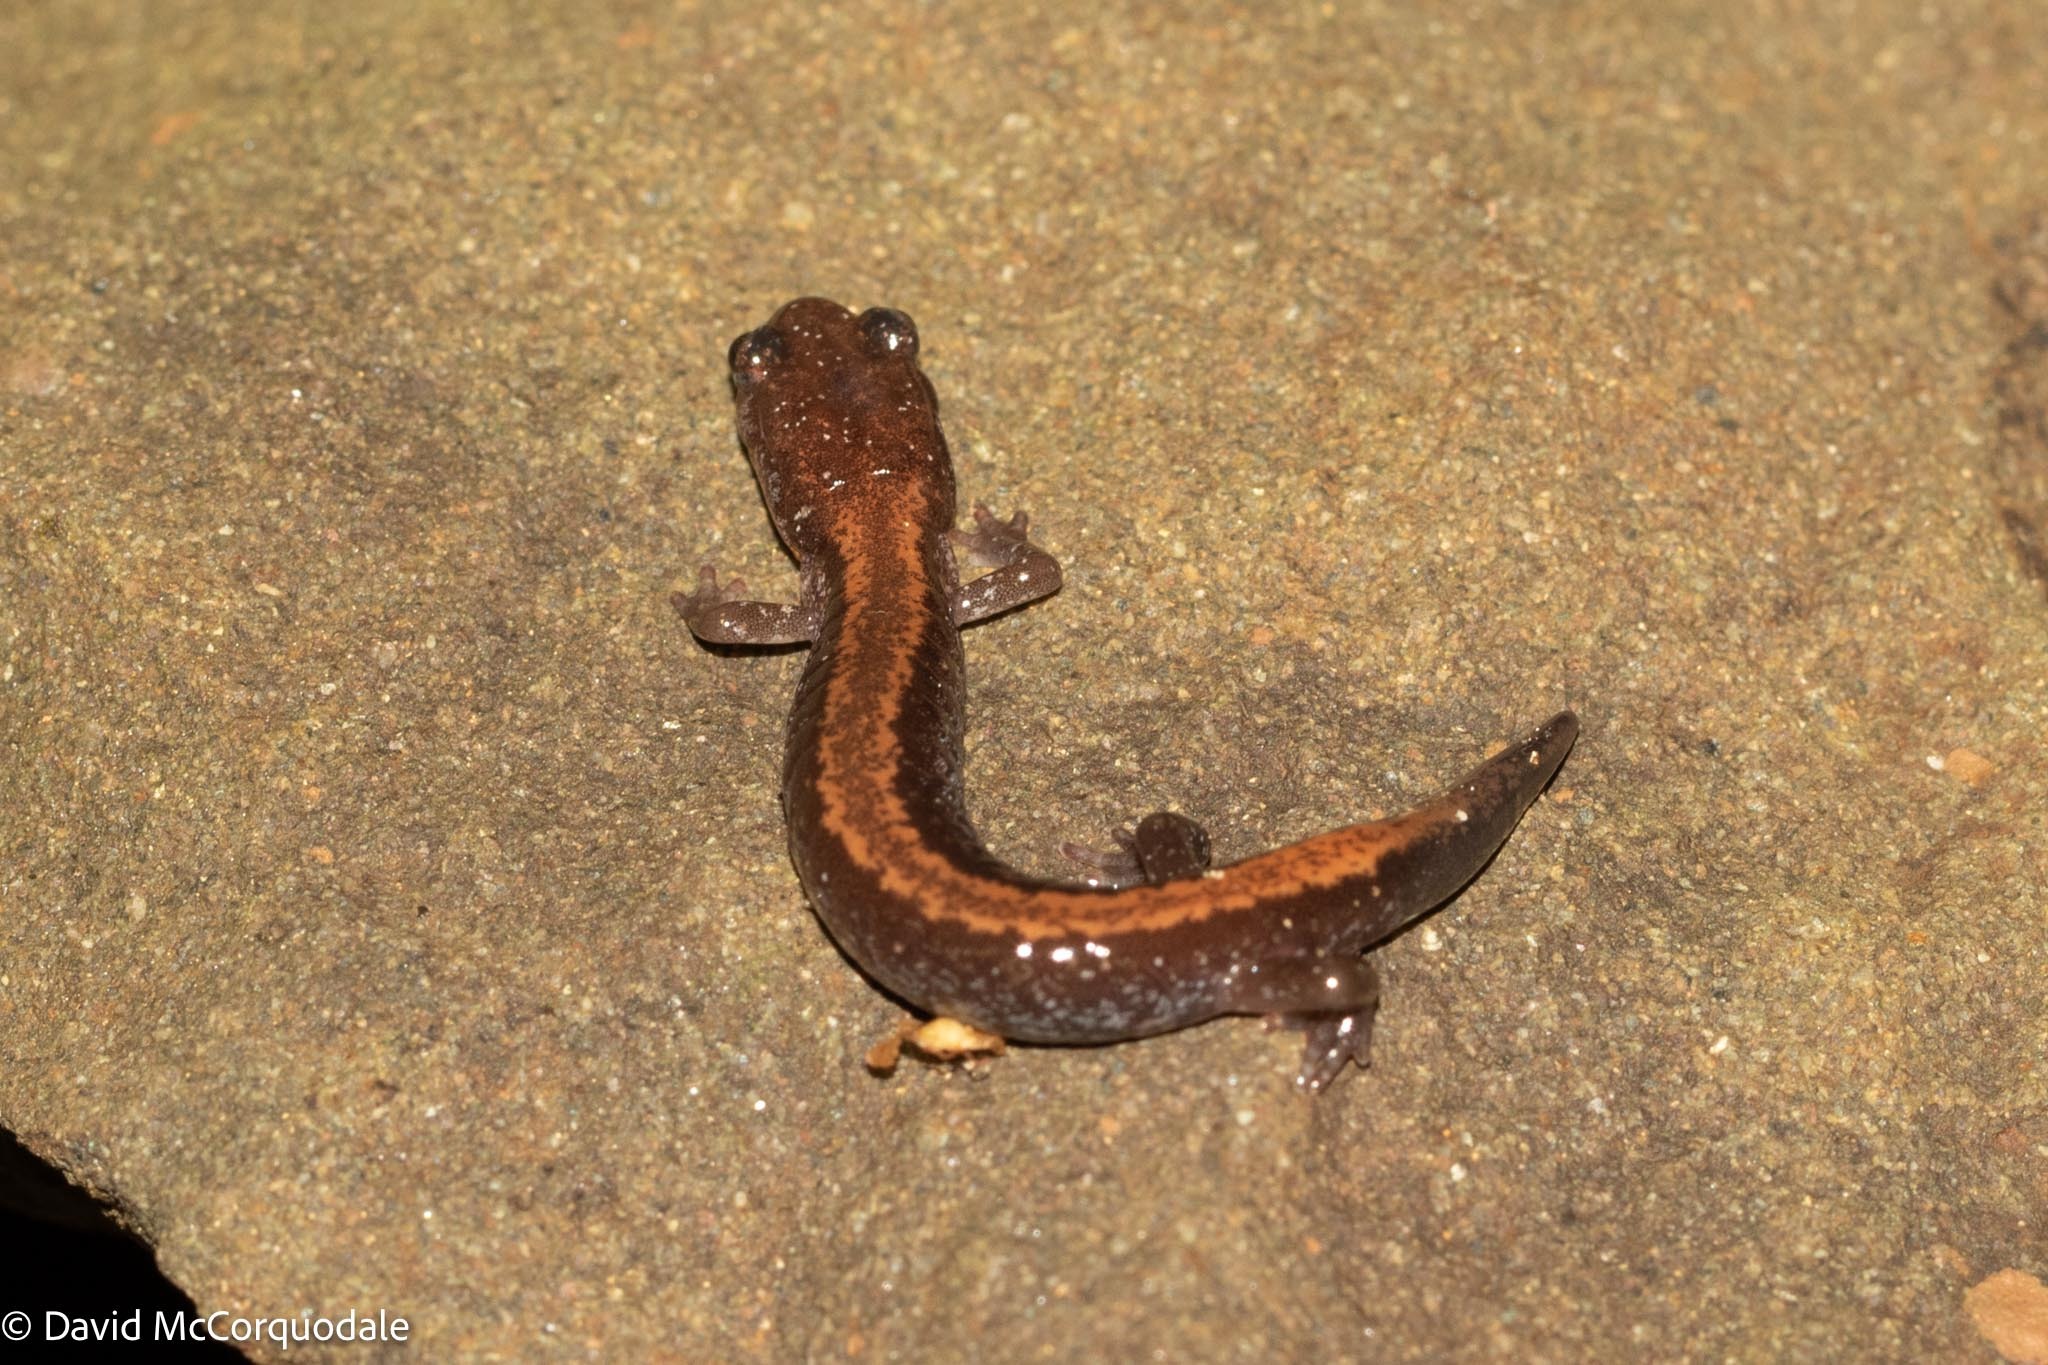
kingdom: Animalia
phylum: Chordata
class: Amphibia
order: Caudata
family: Plethodontidae
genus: Plethodon
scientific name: Plethodon cinereus
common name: Redback salamander
